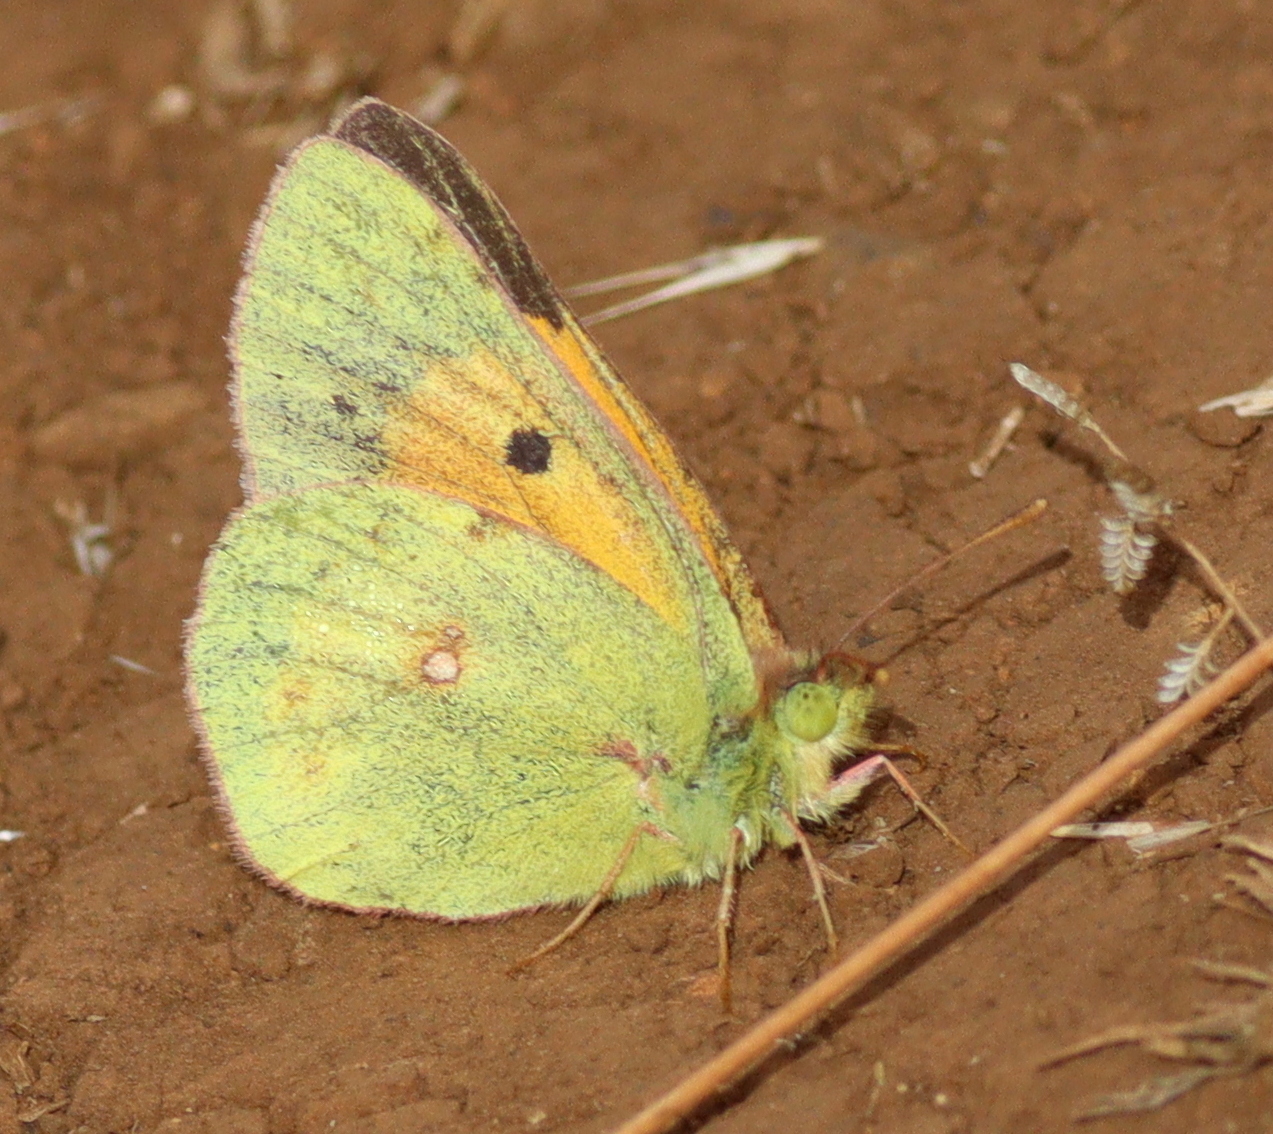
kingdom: Animalia
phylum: Arthropoda
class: Insecta
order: Lepidoptera
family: Pieridae
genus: Colias
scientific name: Colias electo
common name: African clouded yellow
